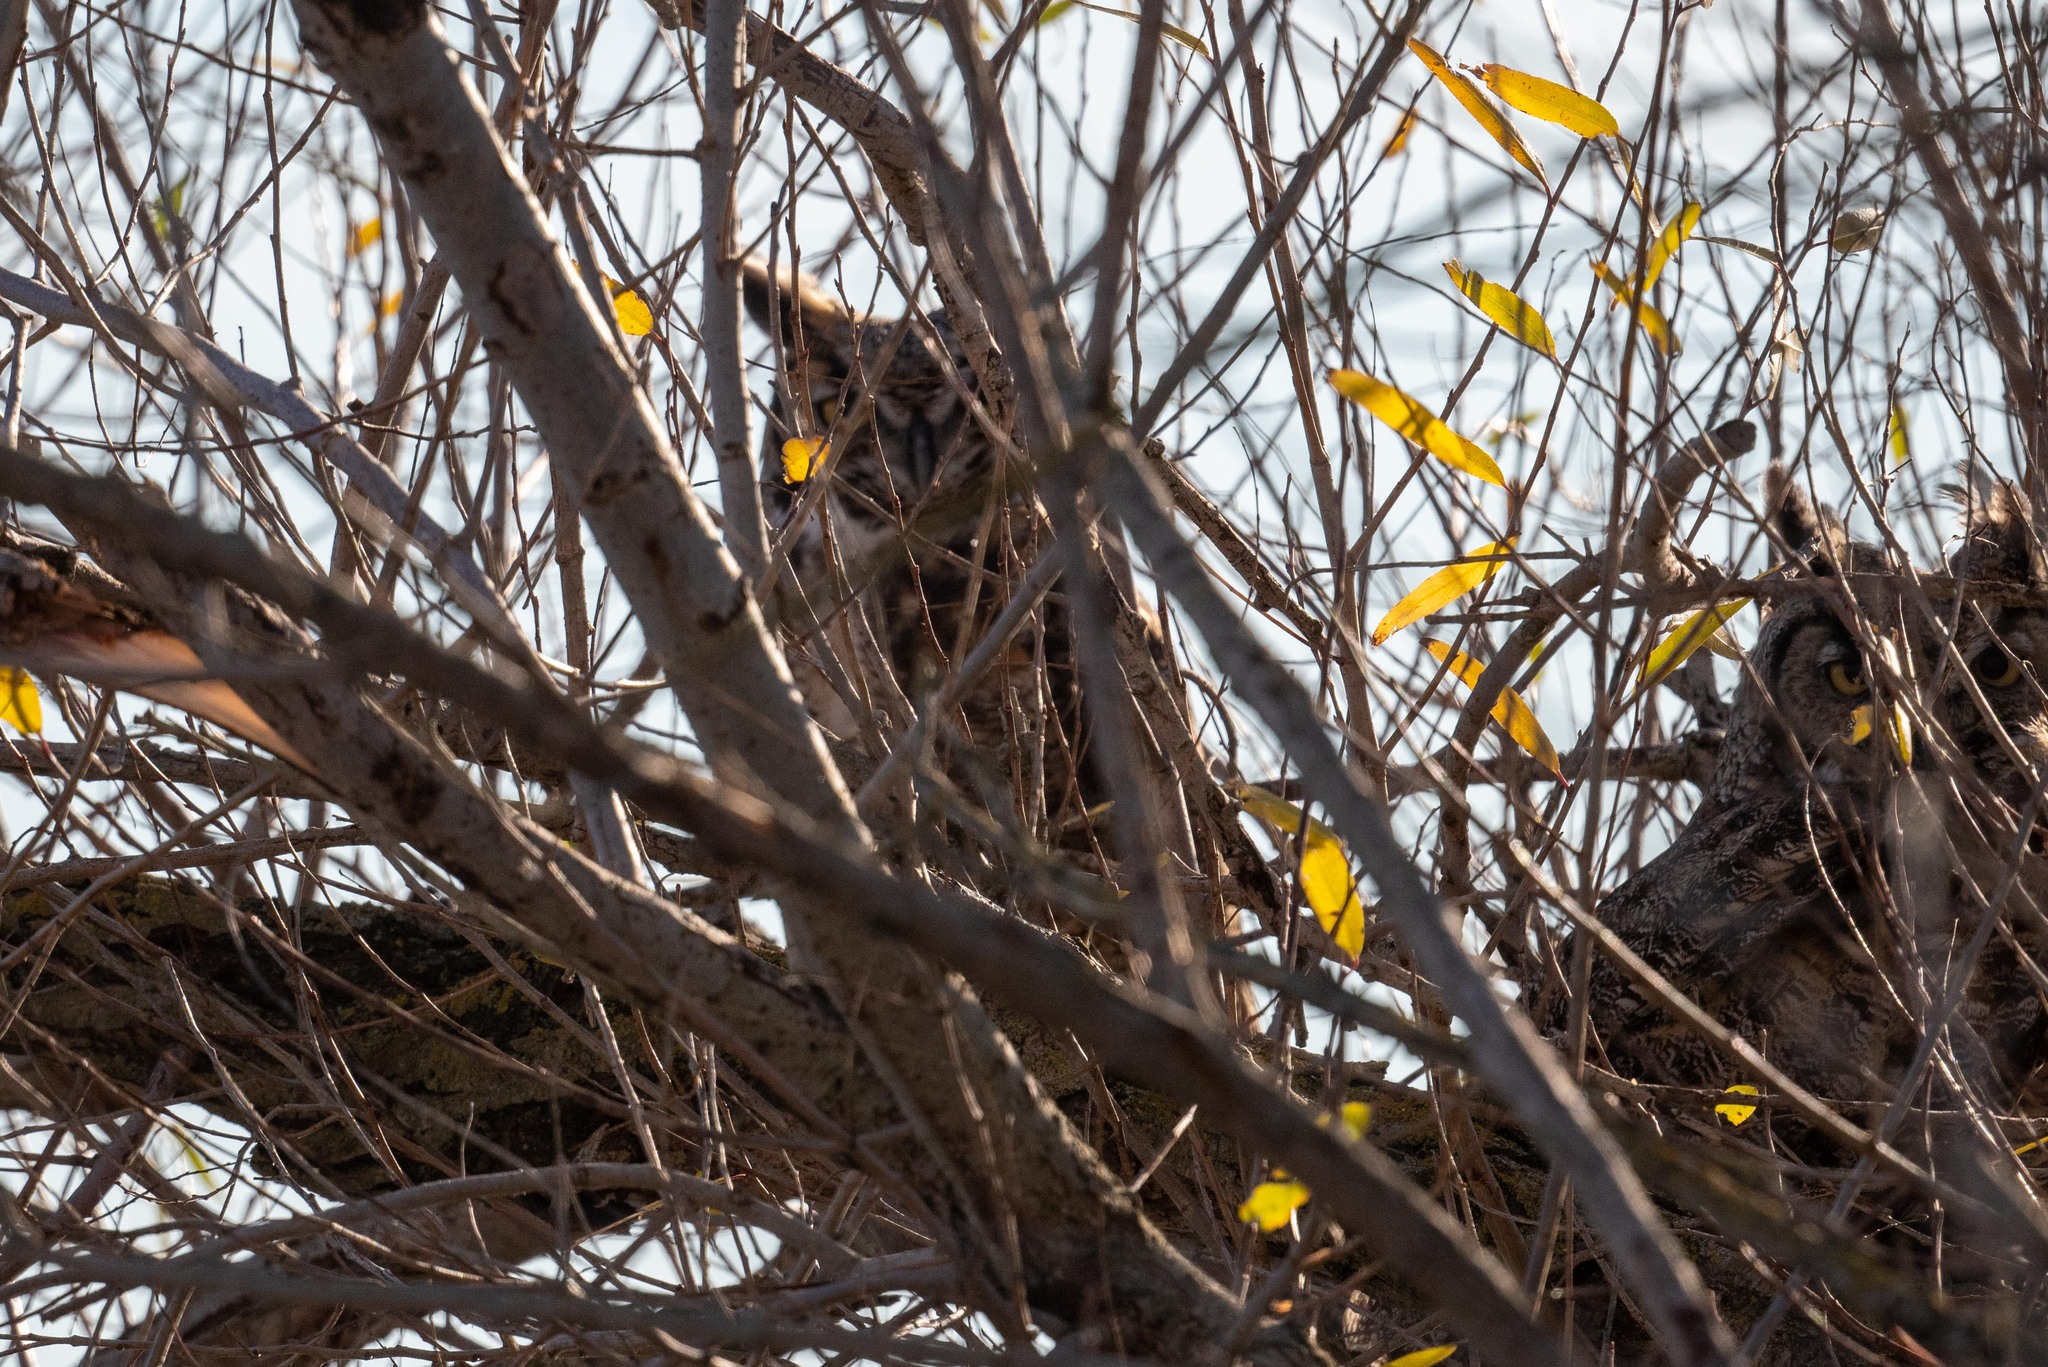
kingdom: Animalia
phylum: Chordata
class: Aves
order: Strigiformes
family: Strigidae
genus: Bubo
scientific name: Bubo virginianus
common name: Great horned owl
